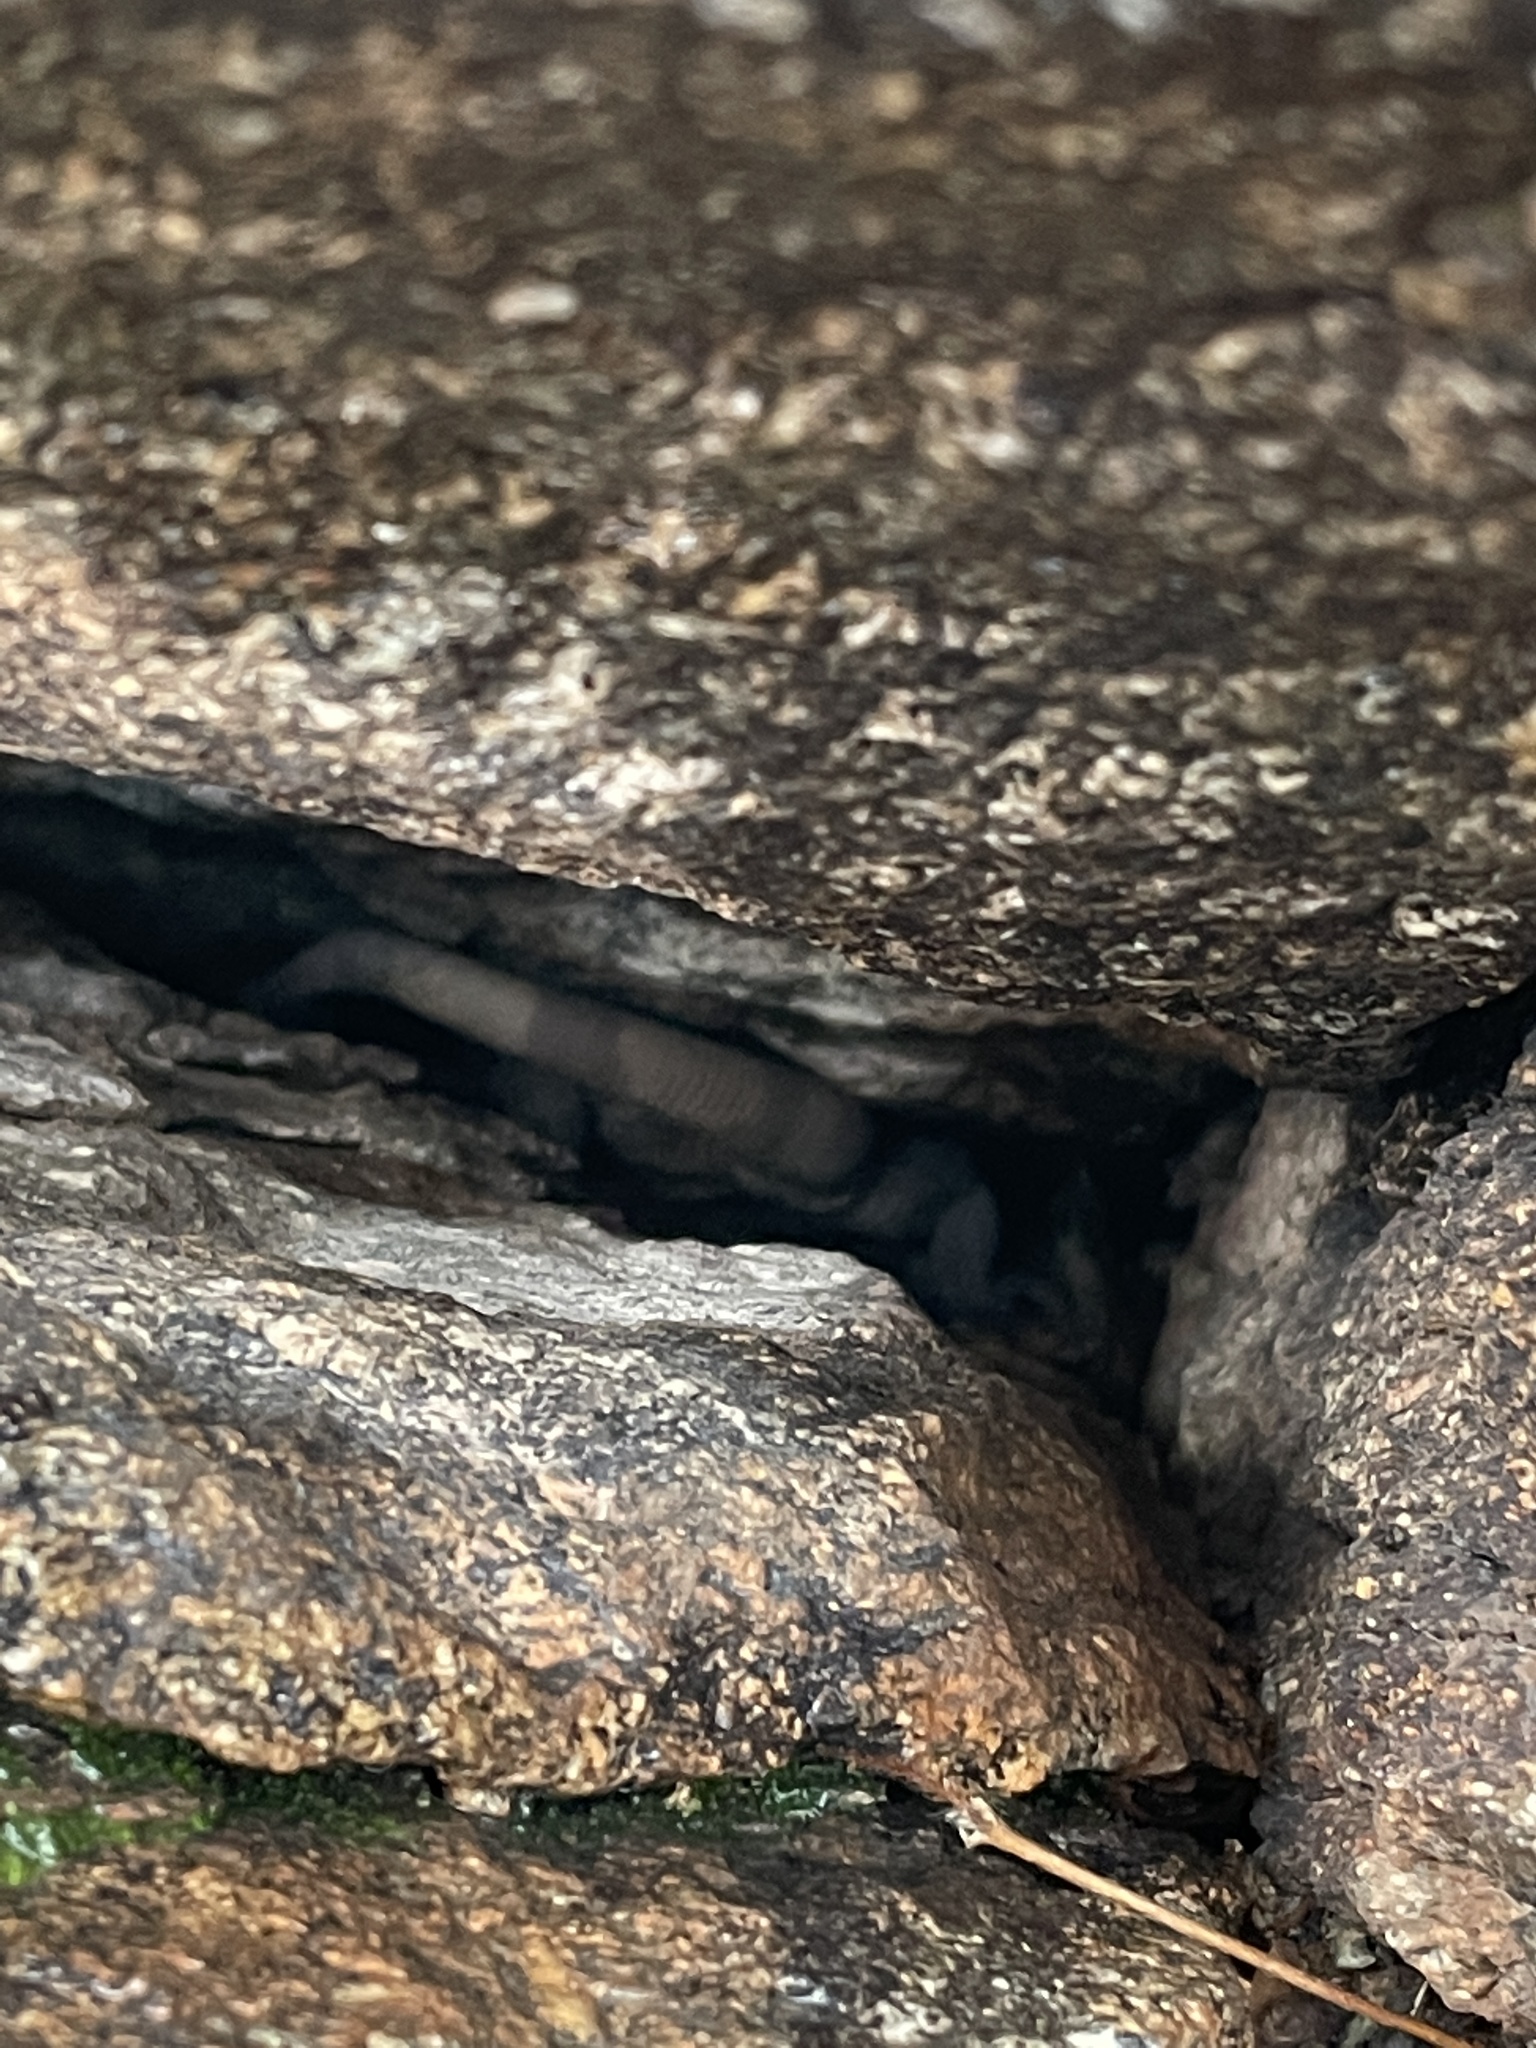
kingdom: Animalia
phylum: Chordata
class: Squamata
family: Iguanidae
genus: Sauromalus
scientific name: Sauromalus ater
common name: Northern chuckwalla
